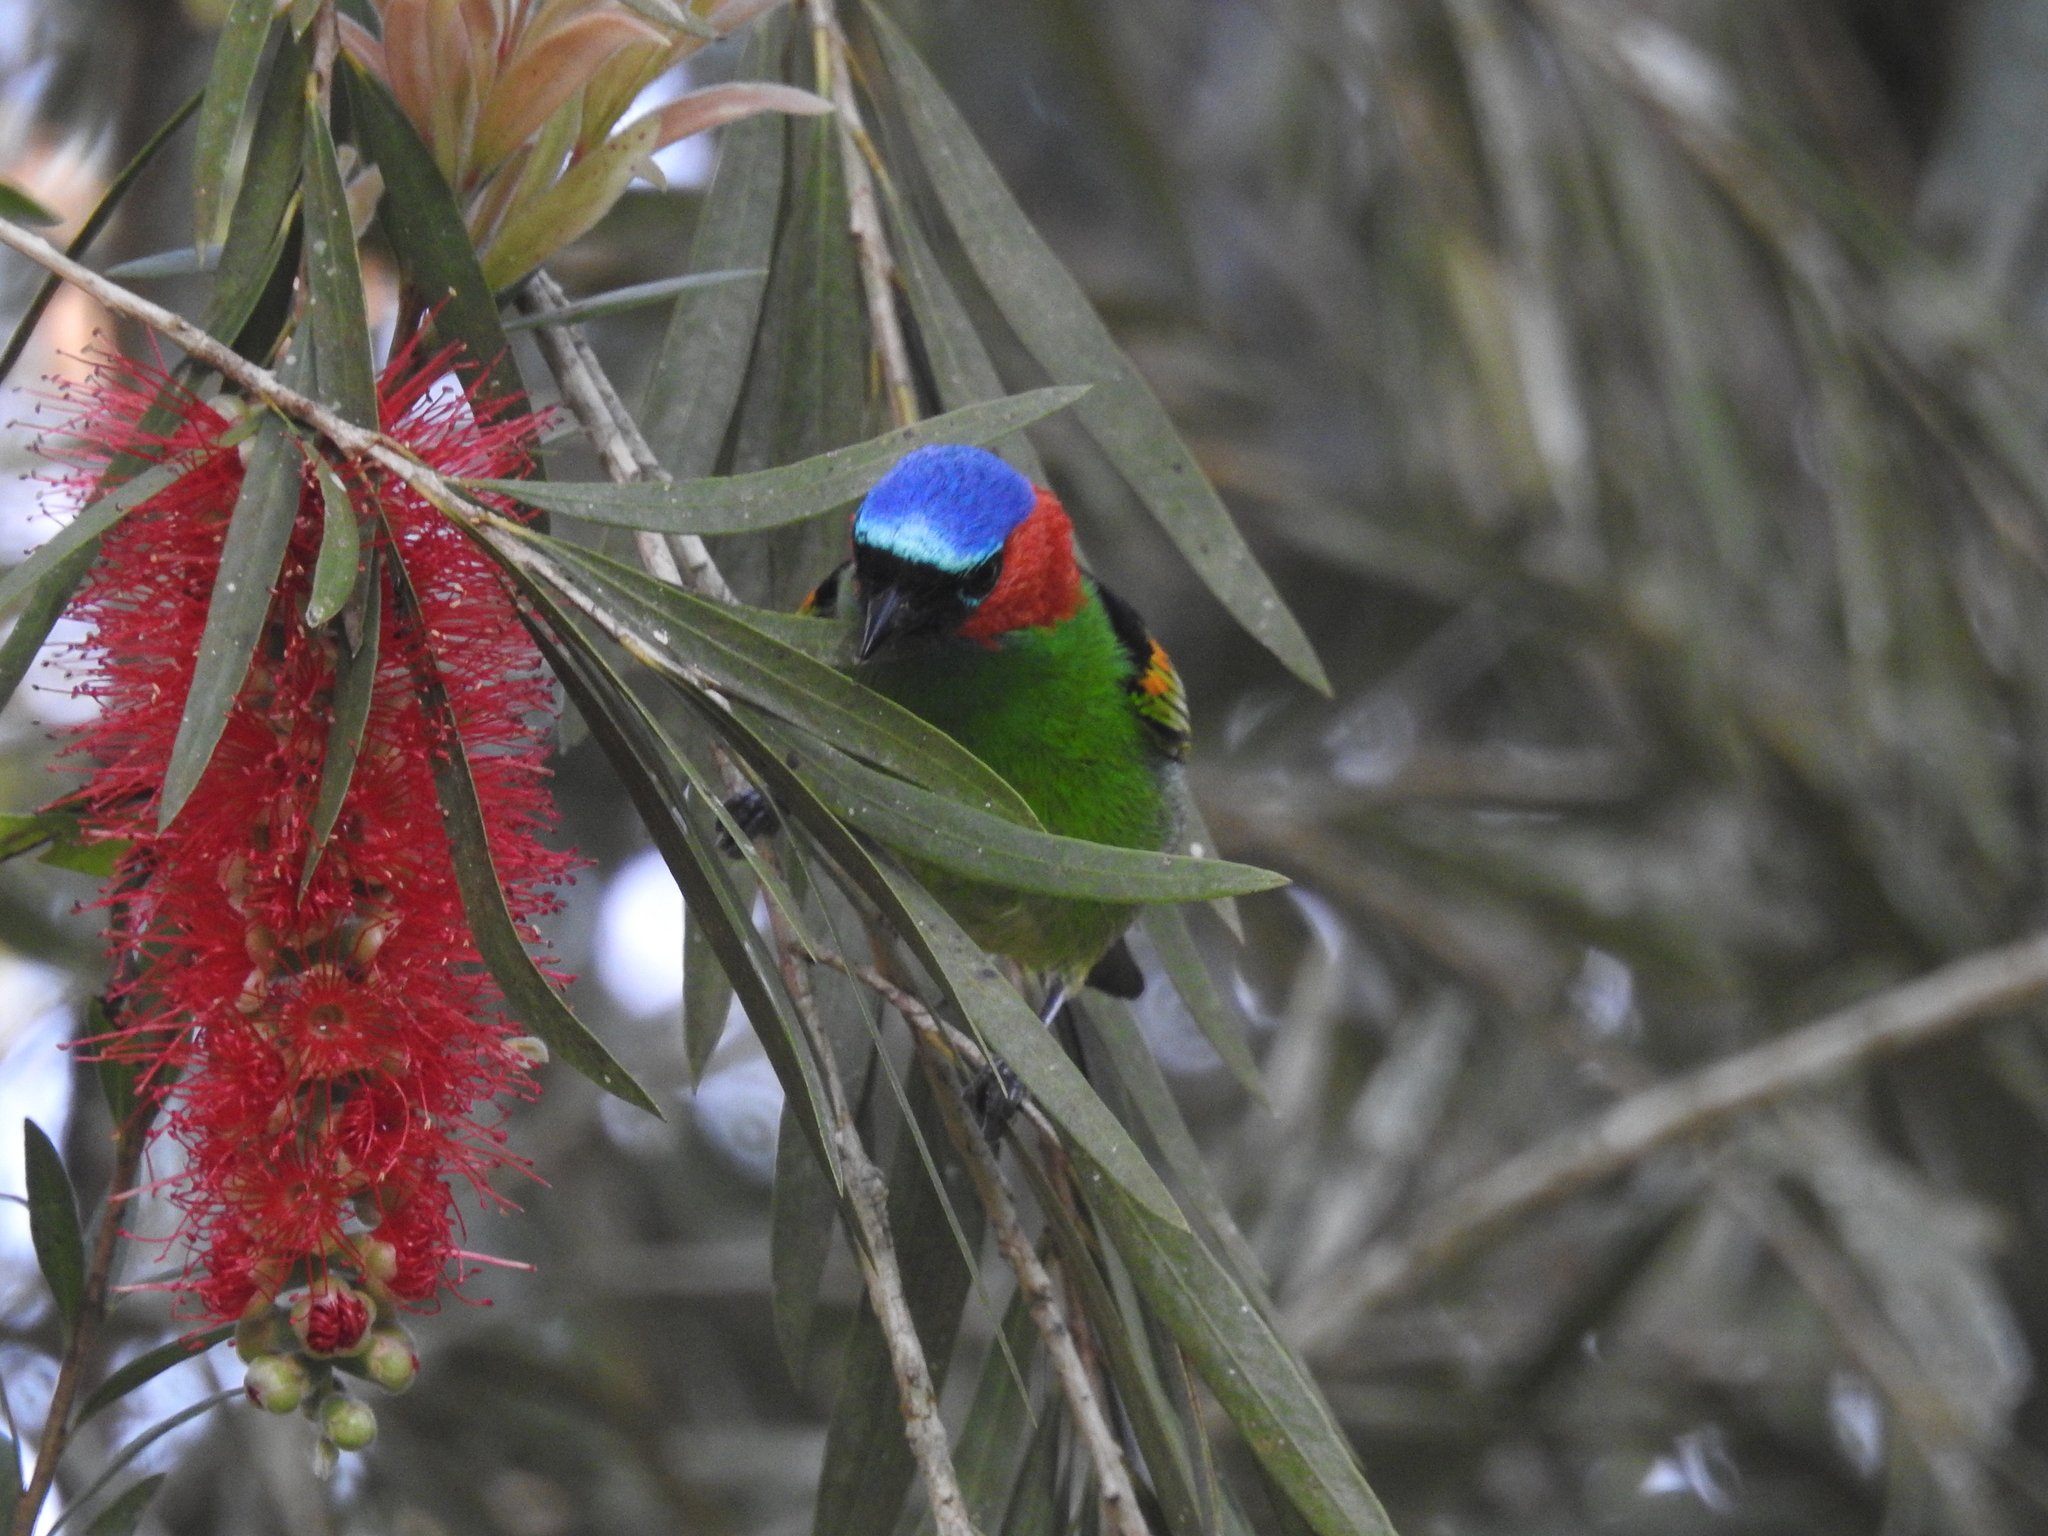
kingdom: Animalia
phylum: Chordata
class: Aves
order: Passeriformes
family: Thraupidae
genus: Tangara
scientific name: Tangara cyanocephala
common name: Red-necked tanager
